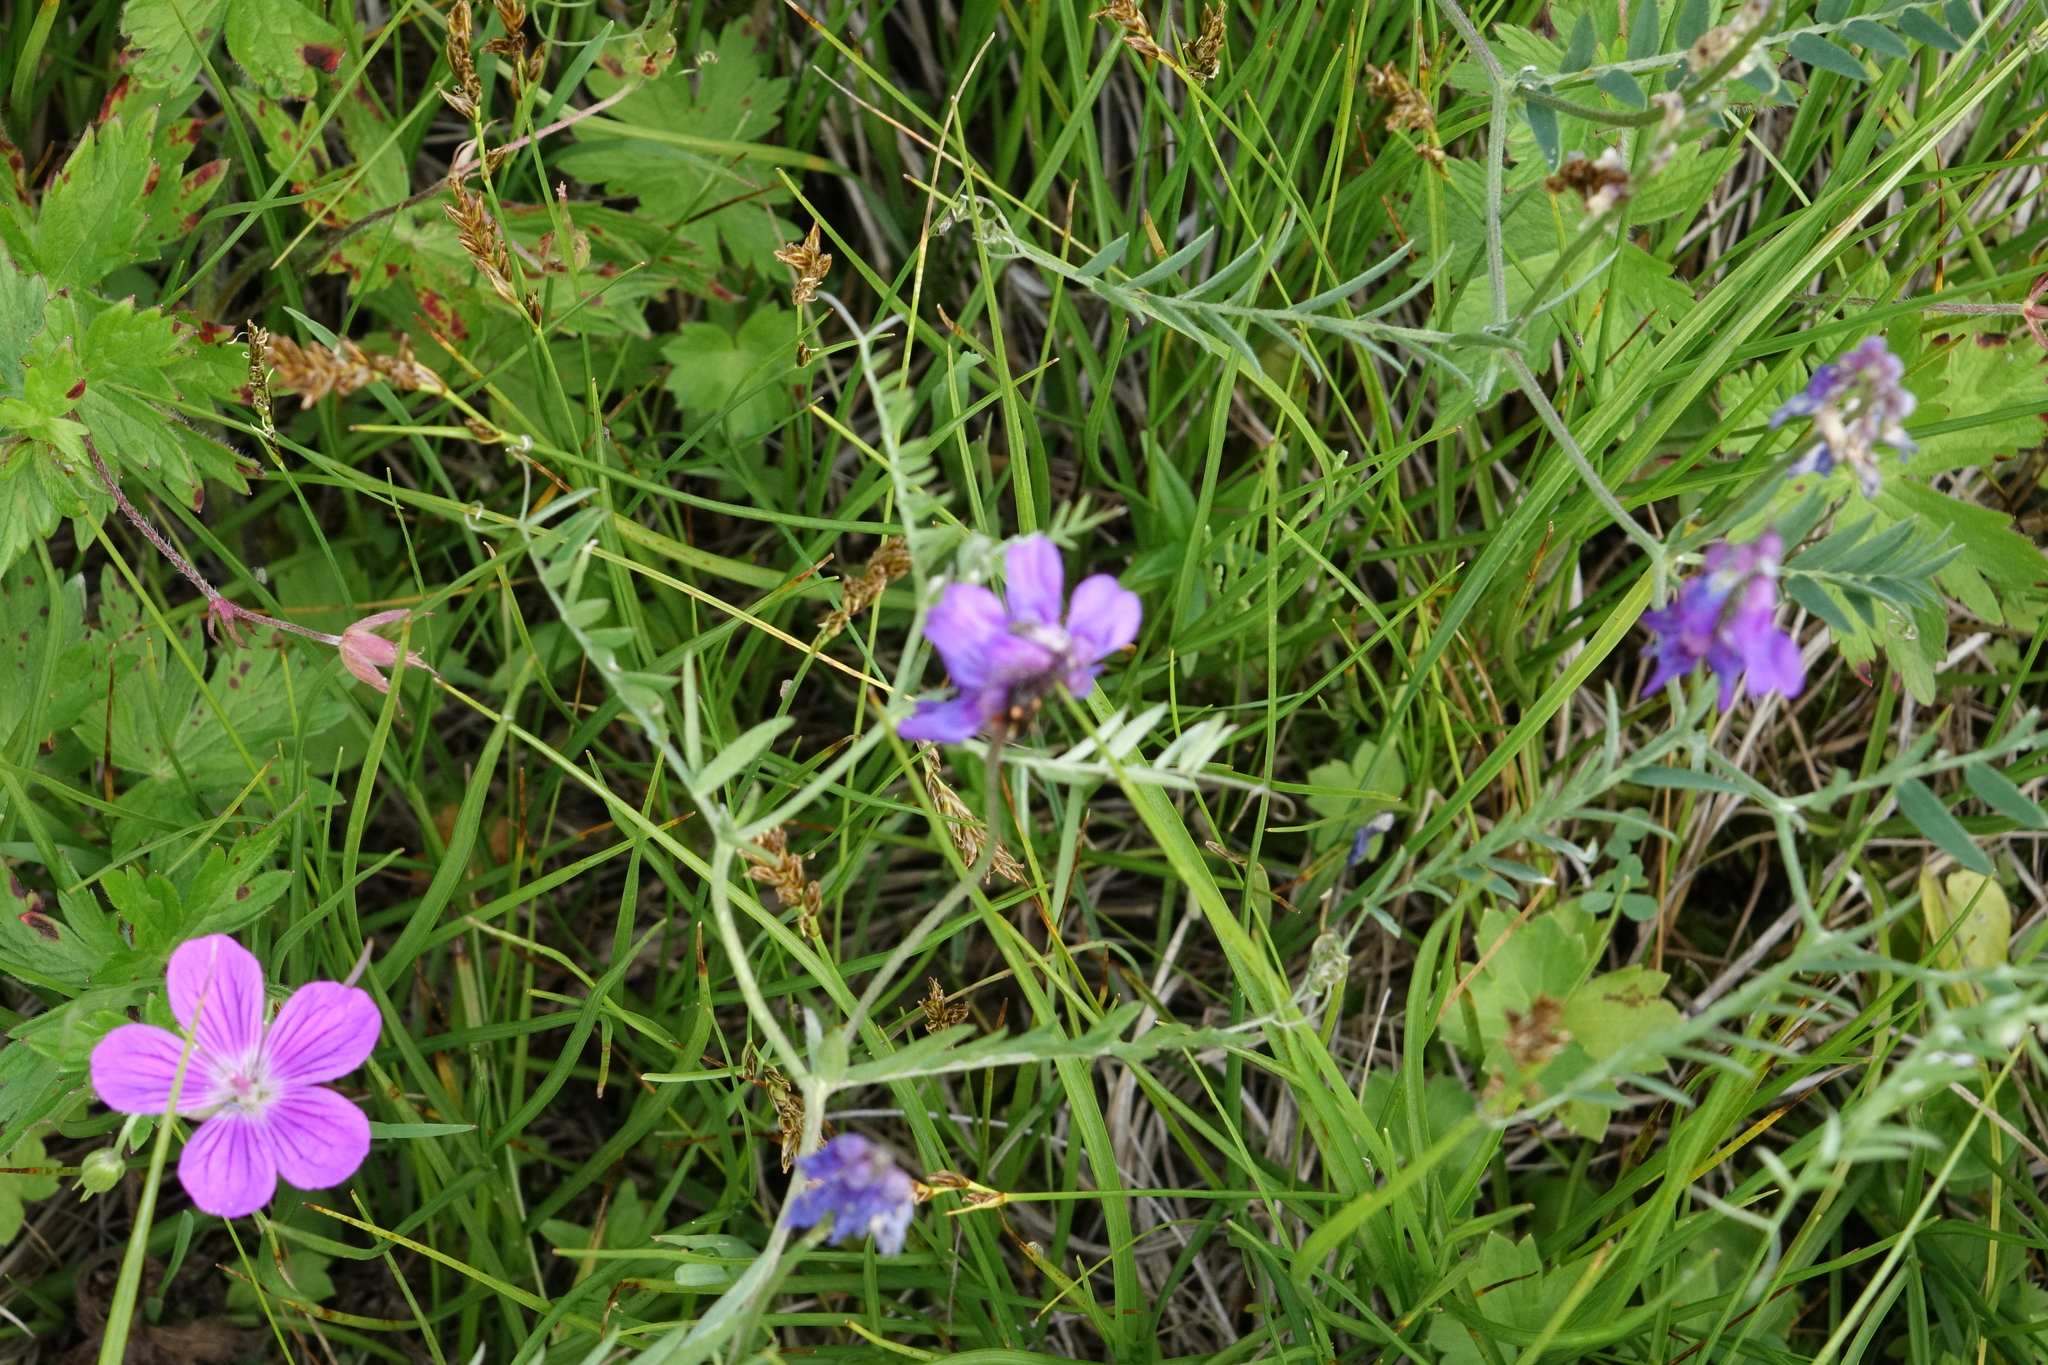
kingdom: Plantae
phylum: Tracheophyta
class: Magnoliopsida
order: Fabales
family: Fabaceae
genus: Vicia
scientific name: Vicia cracca
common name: Bird vetch
